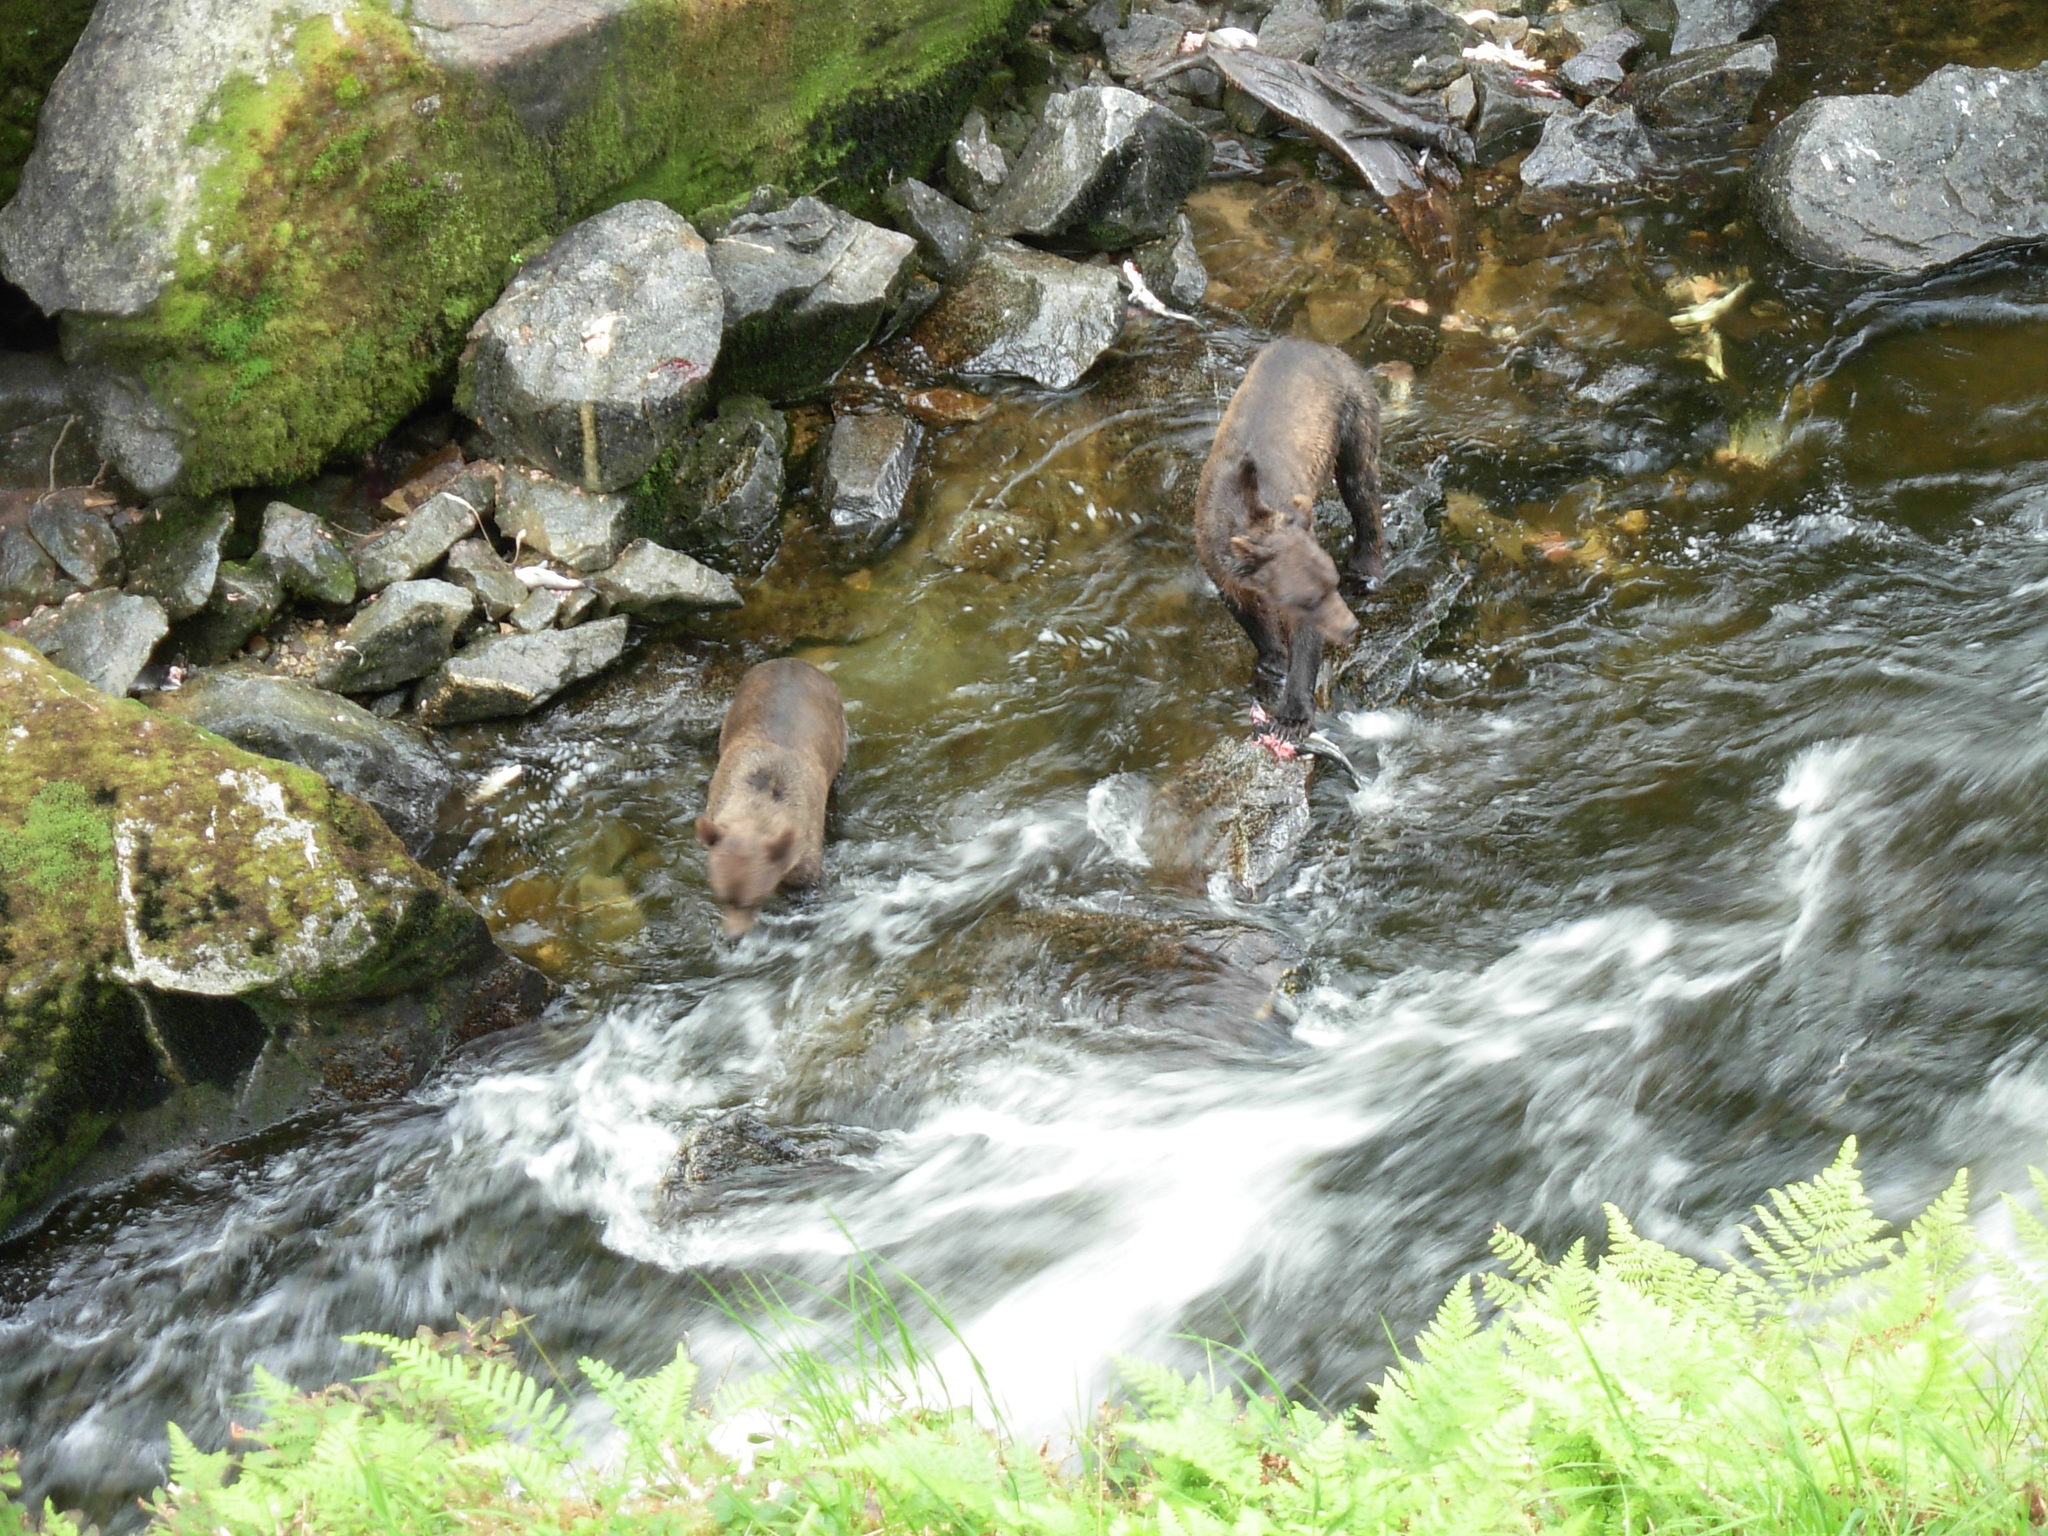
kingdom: Animalia
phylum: Chordata
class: Mammalia
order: Carnivora
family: Ursidae
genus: Ursus
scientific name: Ursus arctos
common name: Brown bear
